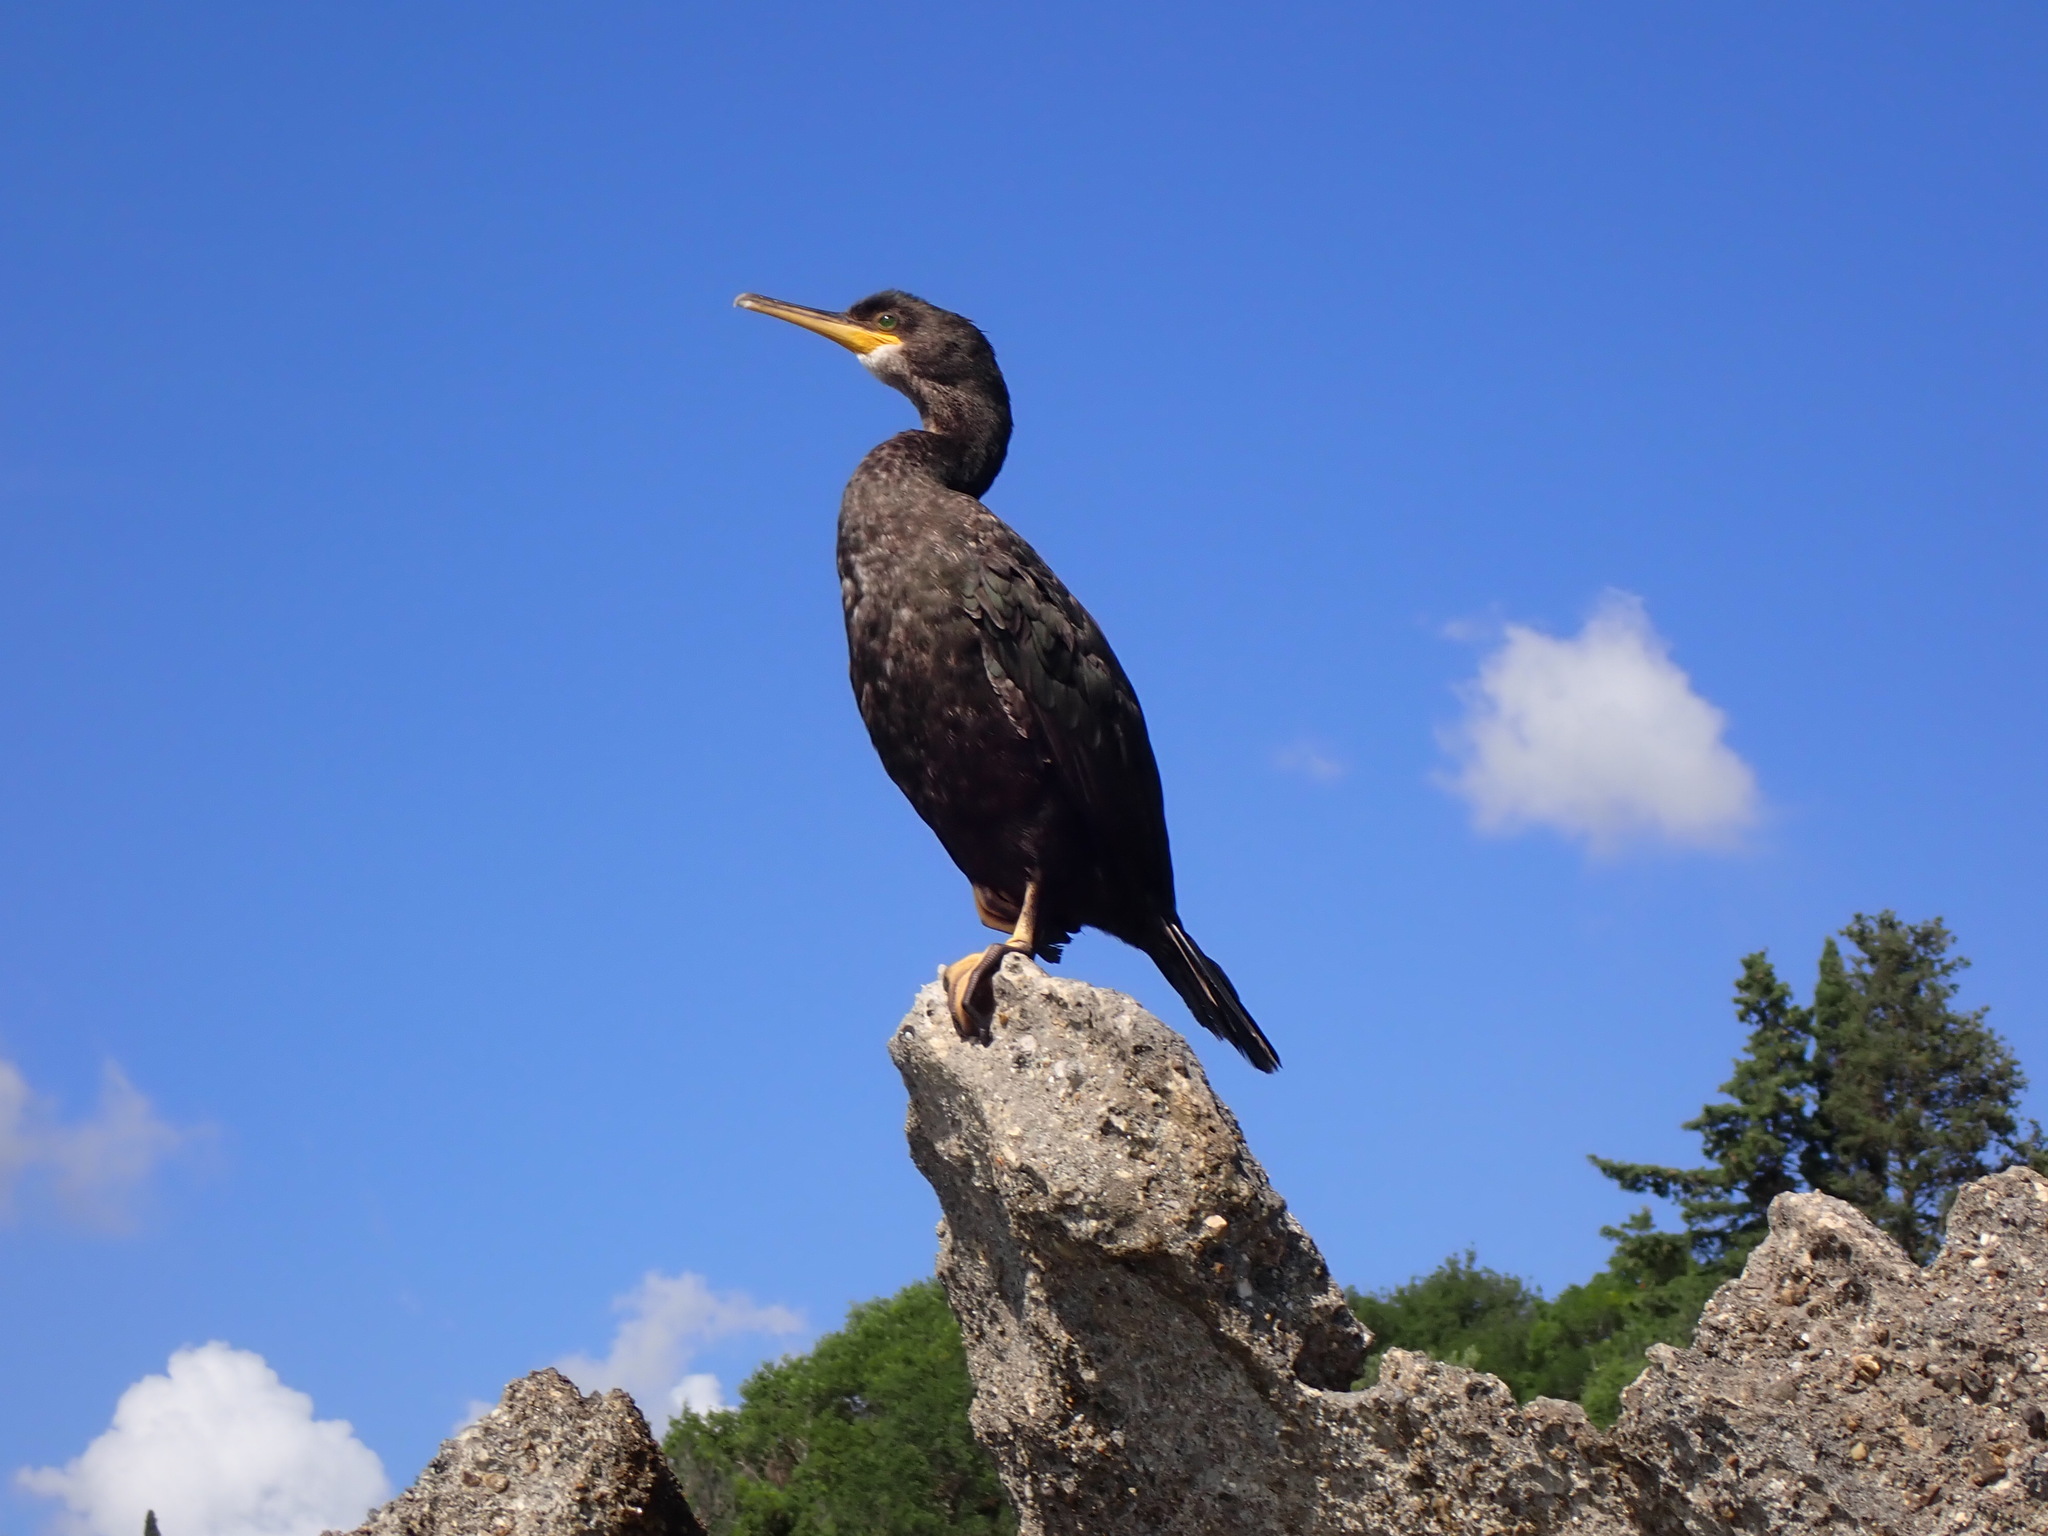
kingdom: Animalia
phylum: Chordata
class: Aves
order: Suliformes
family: Phalacrocoracidae
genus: Phalacrocorax
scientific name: Phalacrocorax aristotelis
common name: European shag
